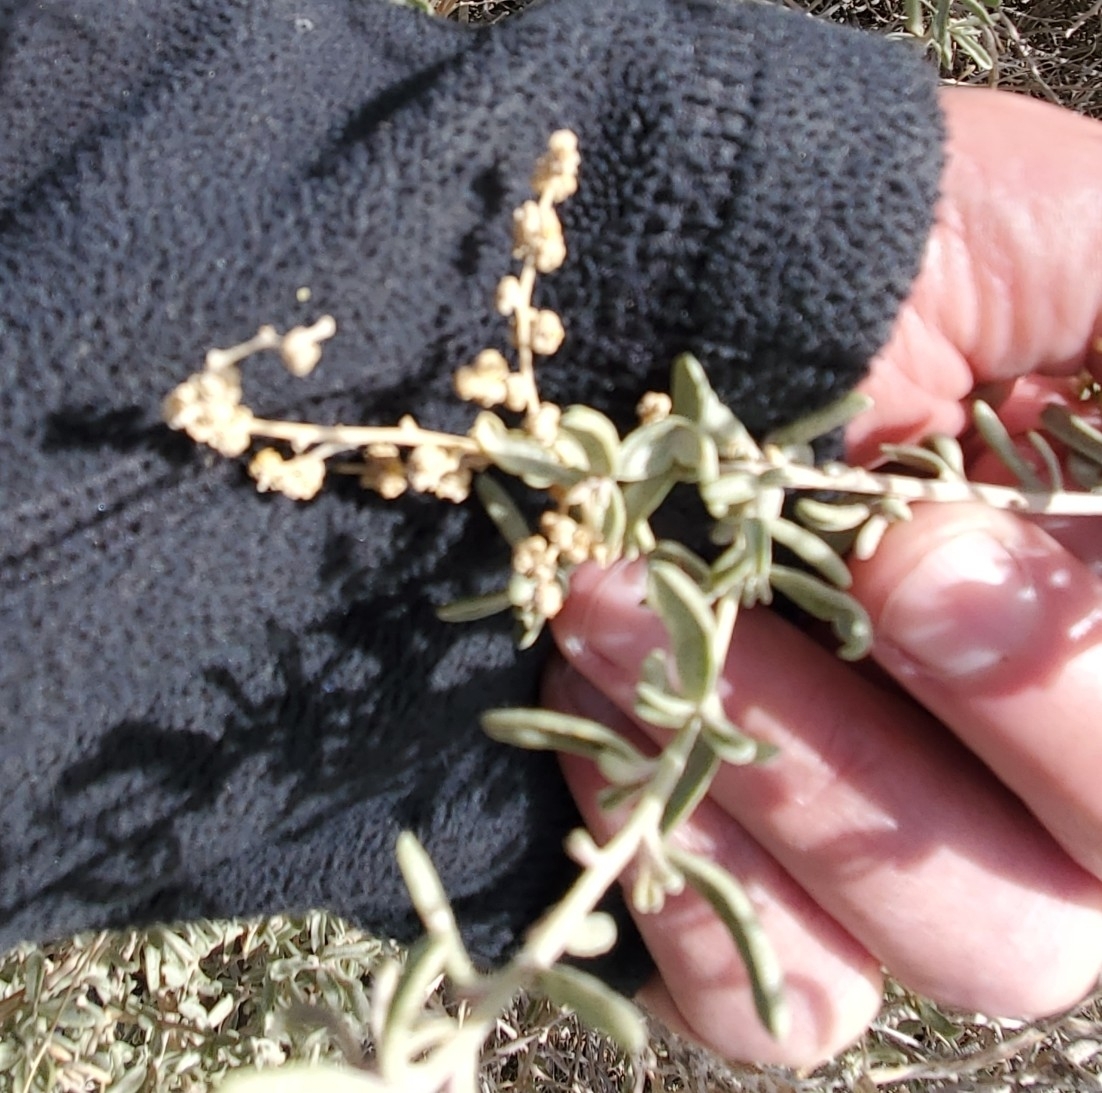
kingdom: Plantae
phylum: Tracheophyta
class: Magnoliopsida
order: Caryophyllales
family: Amaranthaceae
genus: Atriplex
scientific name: Atriplex canescens
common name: Four-wing saltbush
